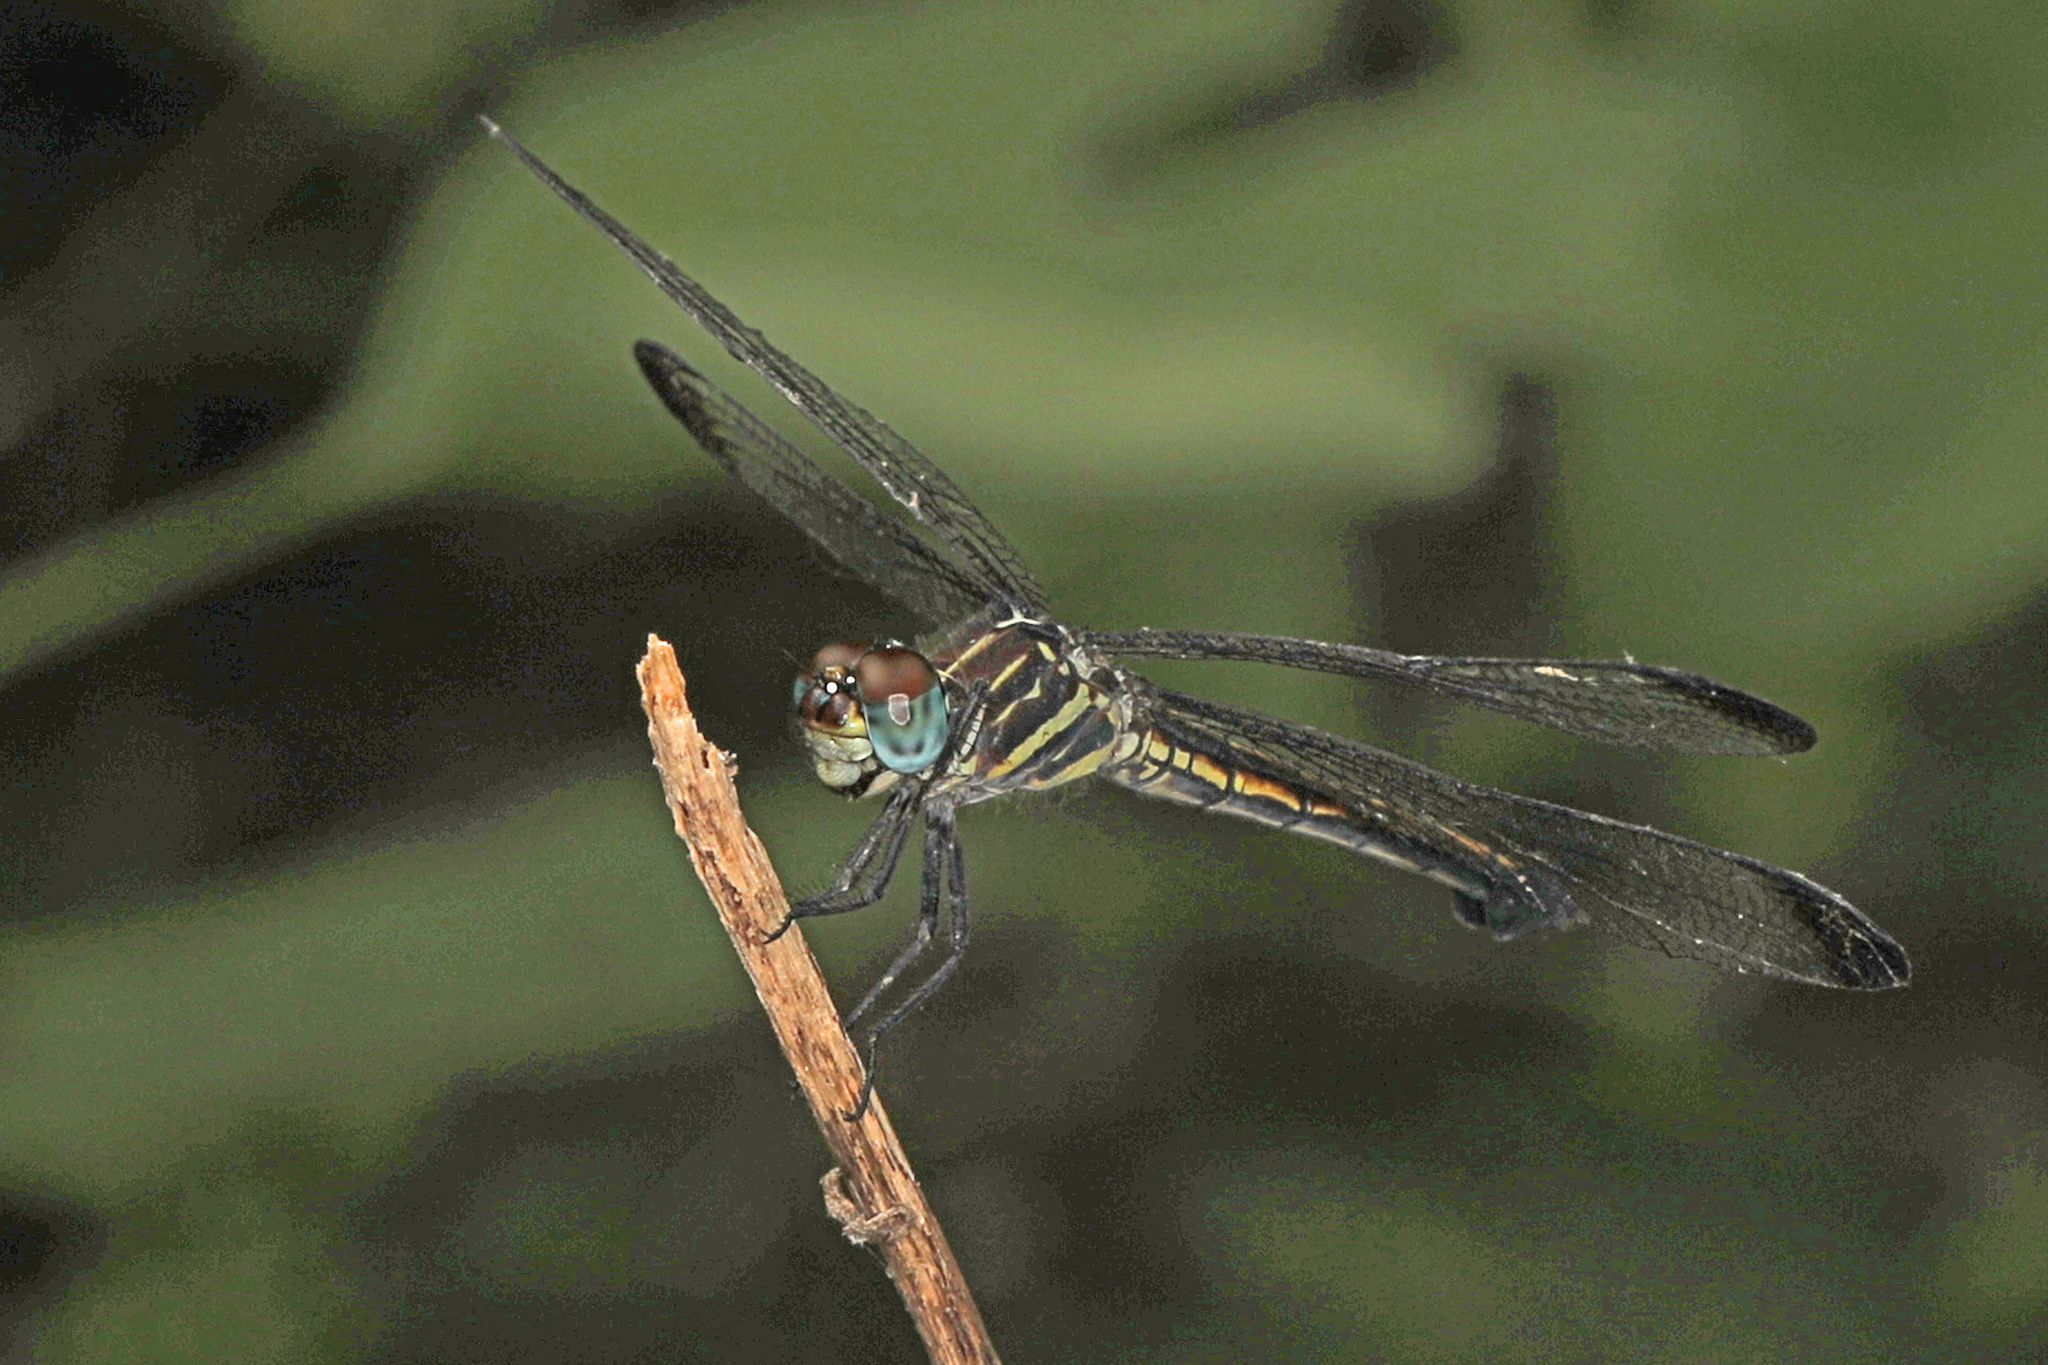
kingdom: Animalia
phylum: Arthropoda
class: Insecta
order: Odonata
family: Libellulidae
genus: Cannaphila
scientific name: Cannaphila insularis
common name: Gray-waisted skimmer
